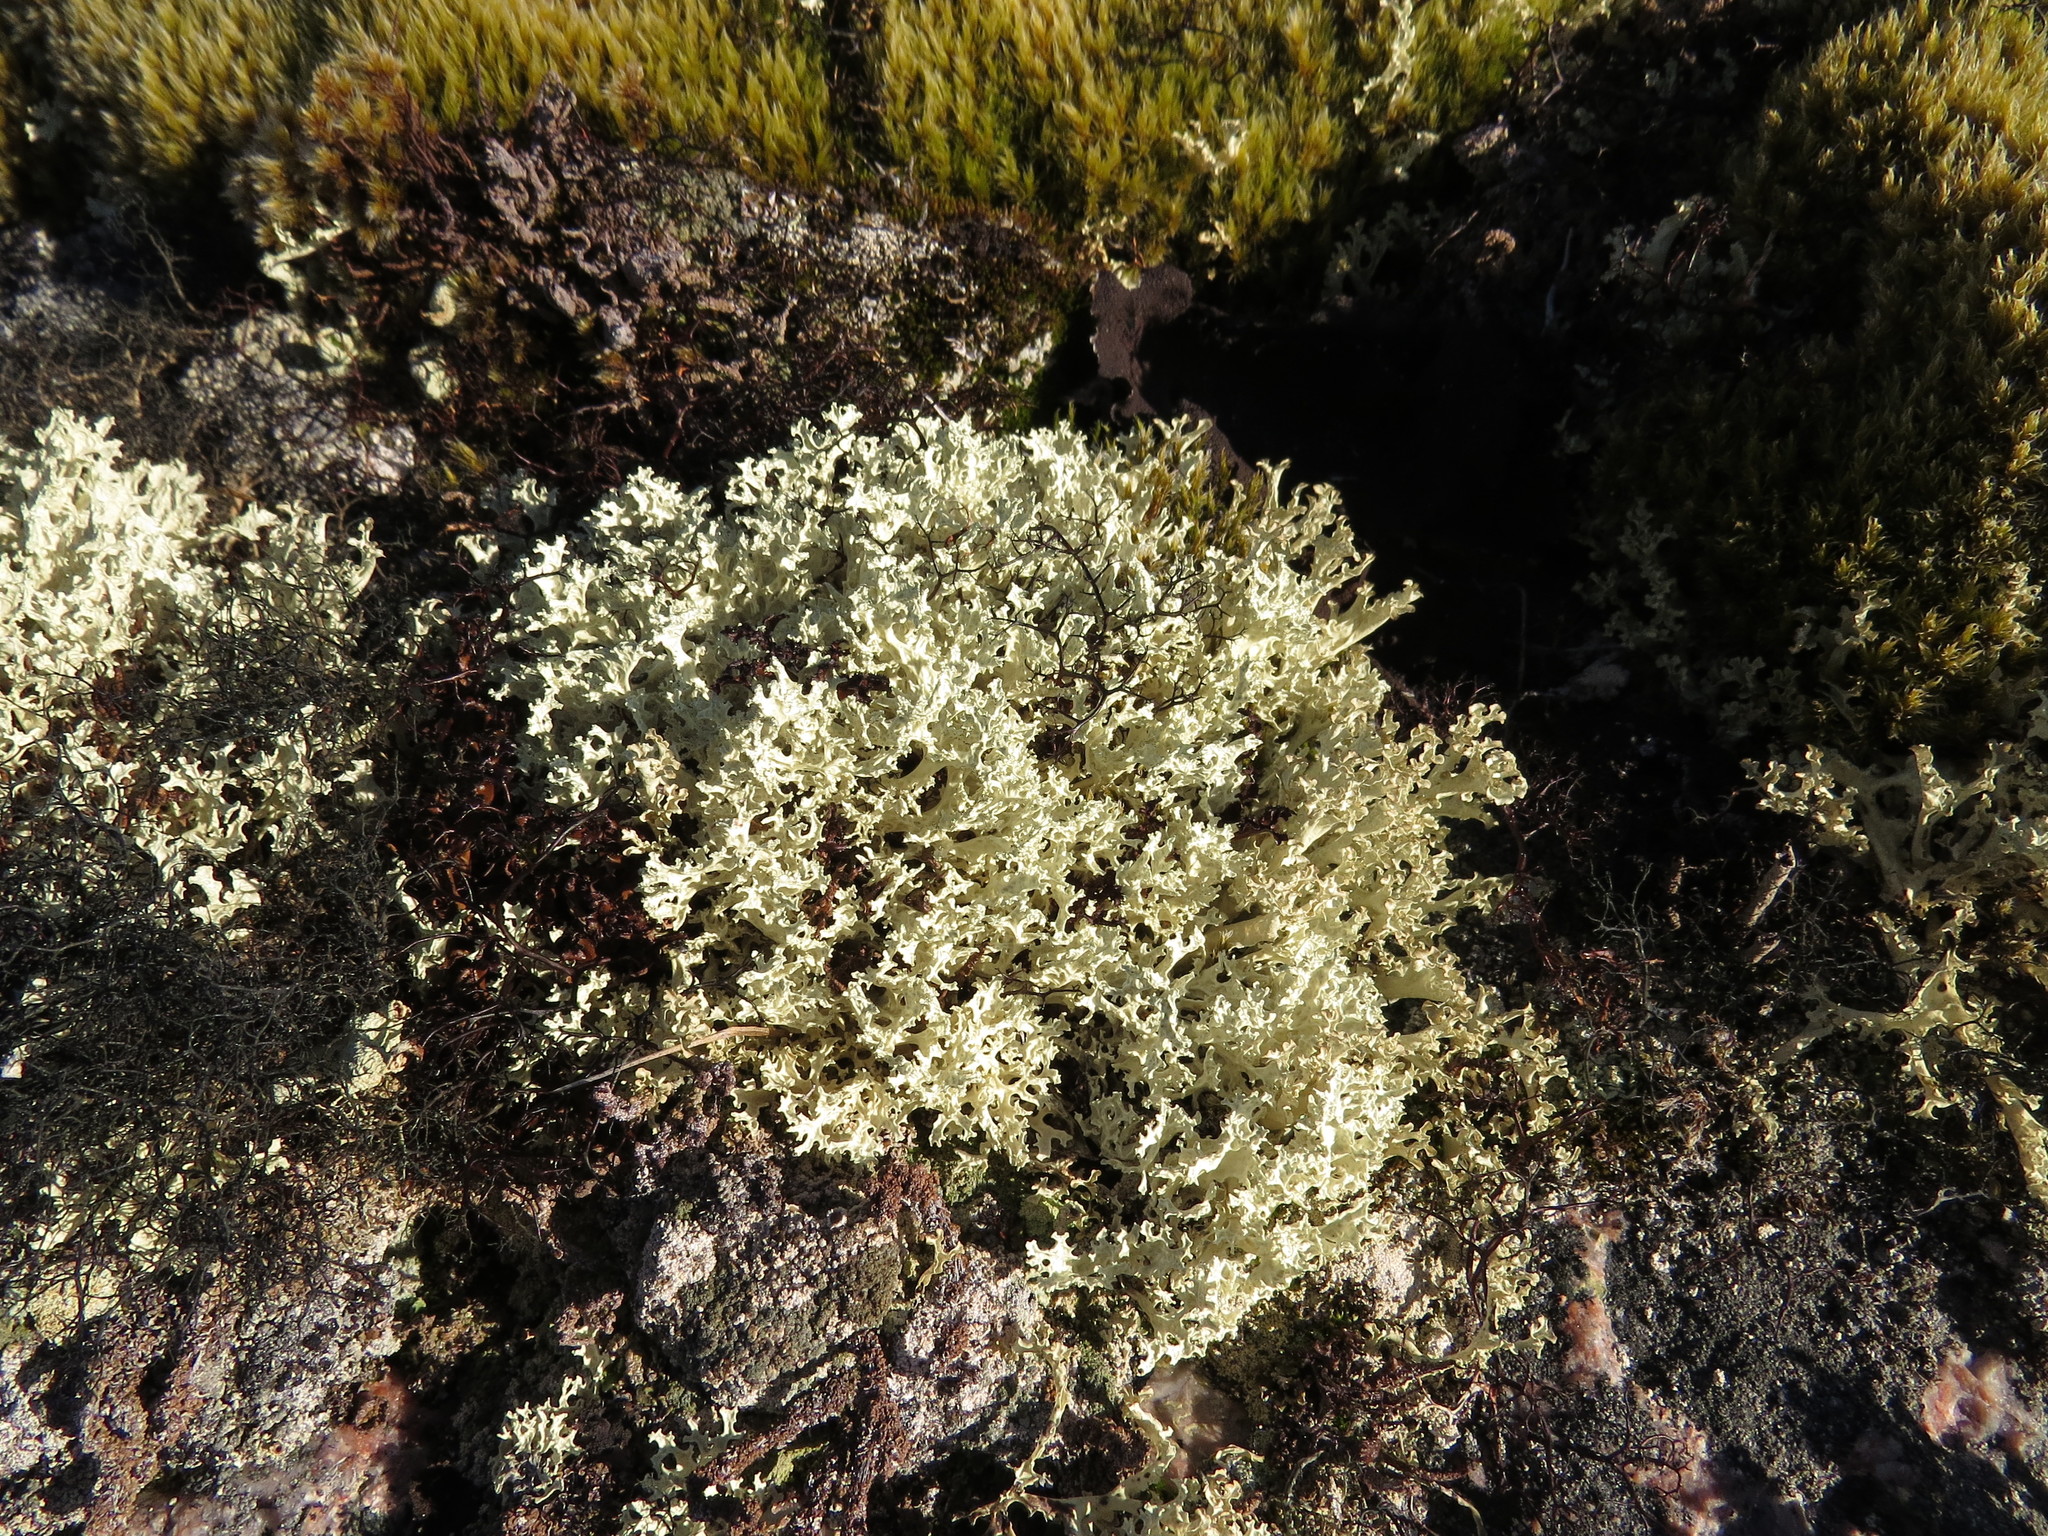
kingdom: Fungi
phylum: Ascomycota
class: Lecanoromycetes
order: Lecanorales
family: Parmeliaceae
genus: Nephromopsis
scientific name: Nephromopsis nivalis
